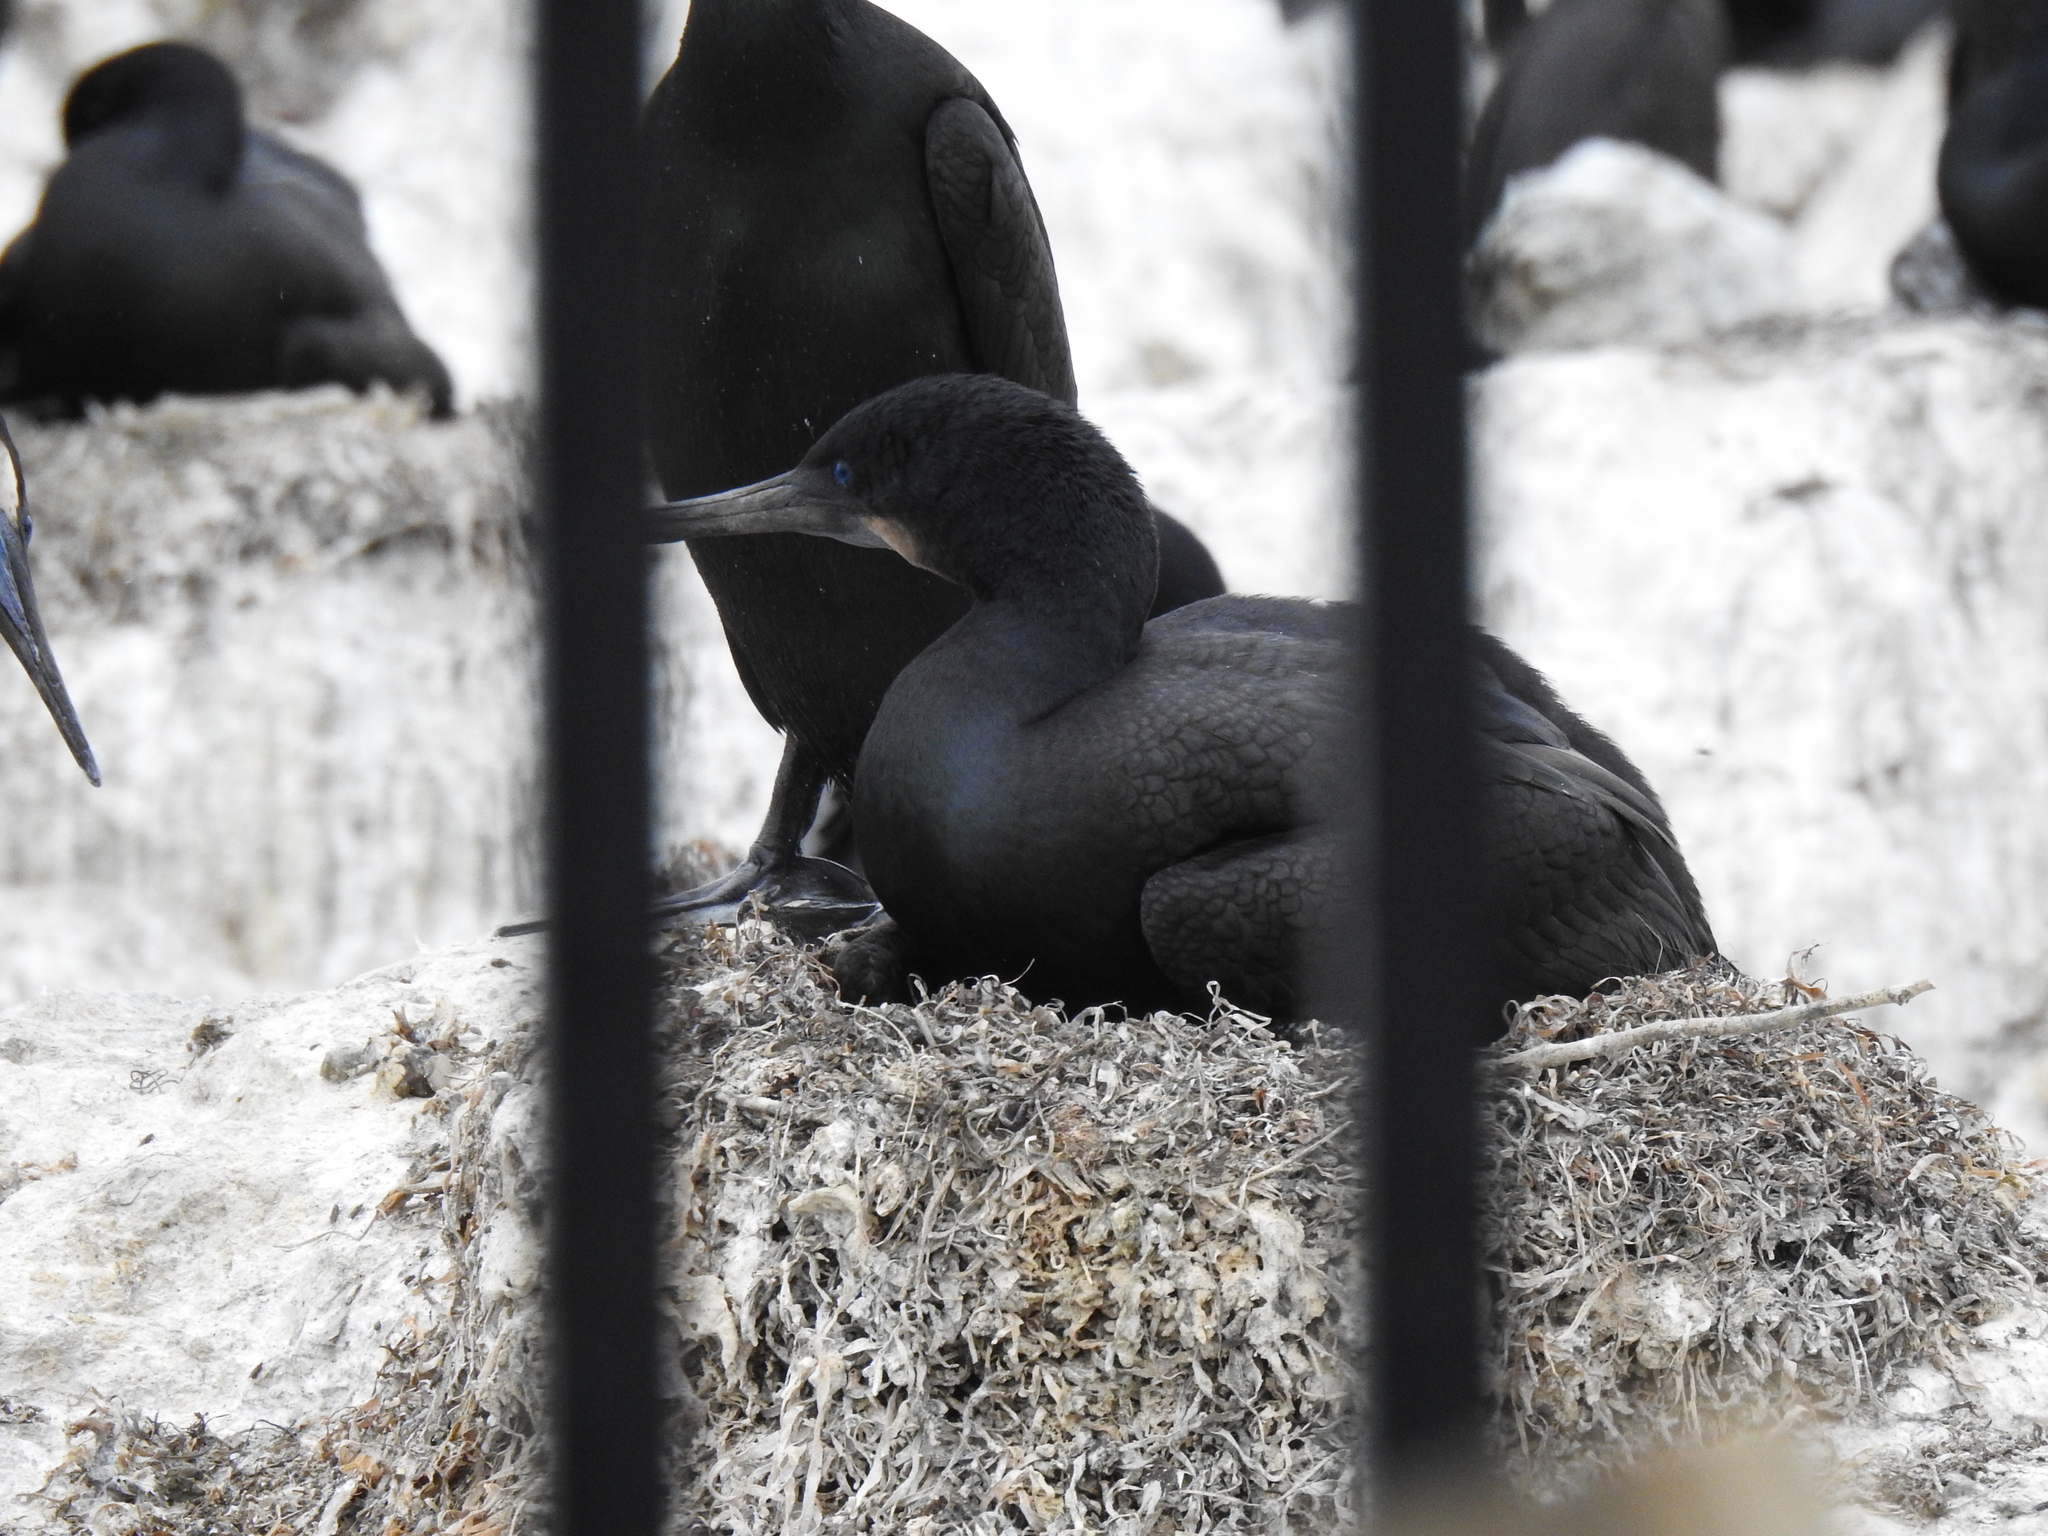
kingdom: Animalia
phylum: Chordata
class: Aves
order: Suliformes
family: Phalacrocoracidae
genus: Urile
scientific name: Urile penicillatus
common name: Brandt's cormorant
